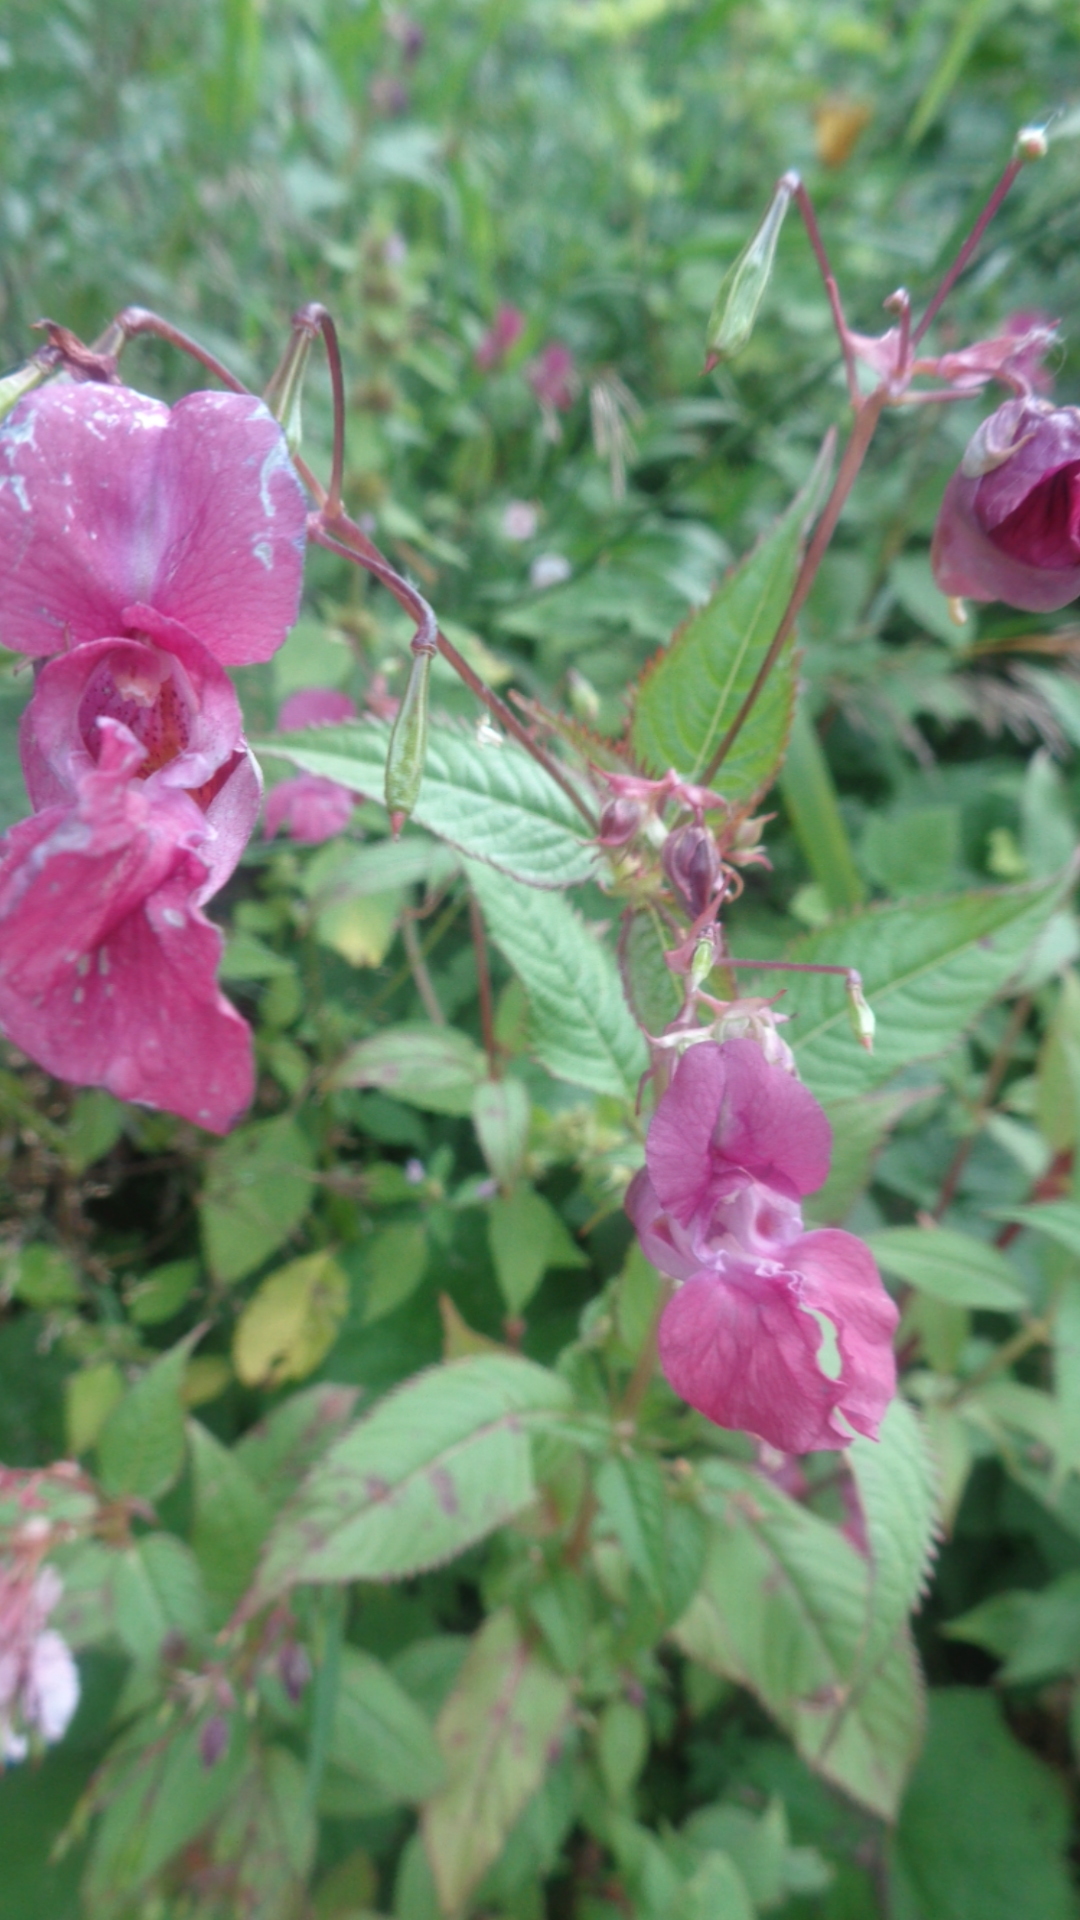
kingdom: Plantae
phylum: Tracheophyta
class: Magnoliopsida
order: Ericales
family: Balsaminaceae
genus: Impatiens
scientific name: Impatiens glandulifera
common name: Himalayan balsam
